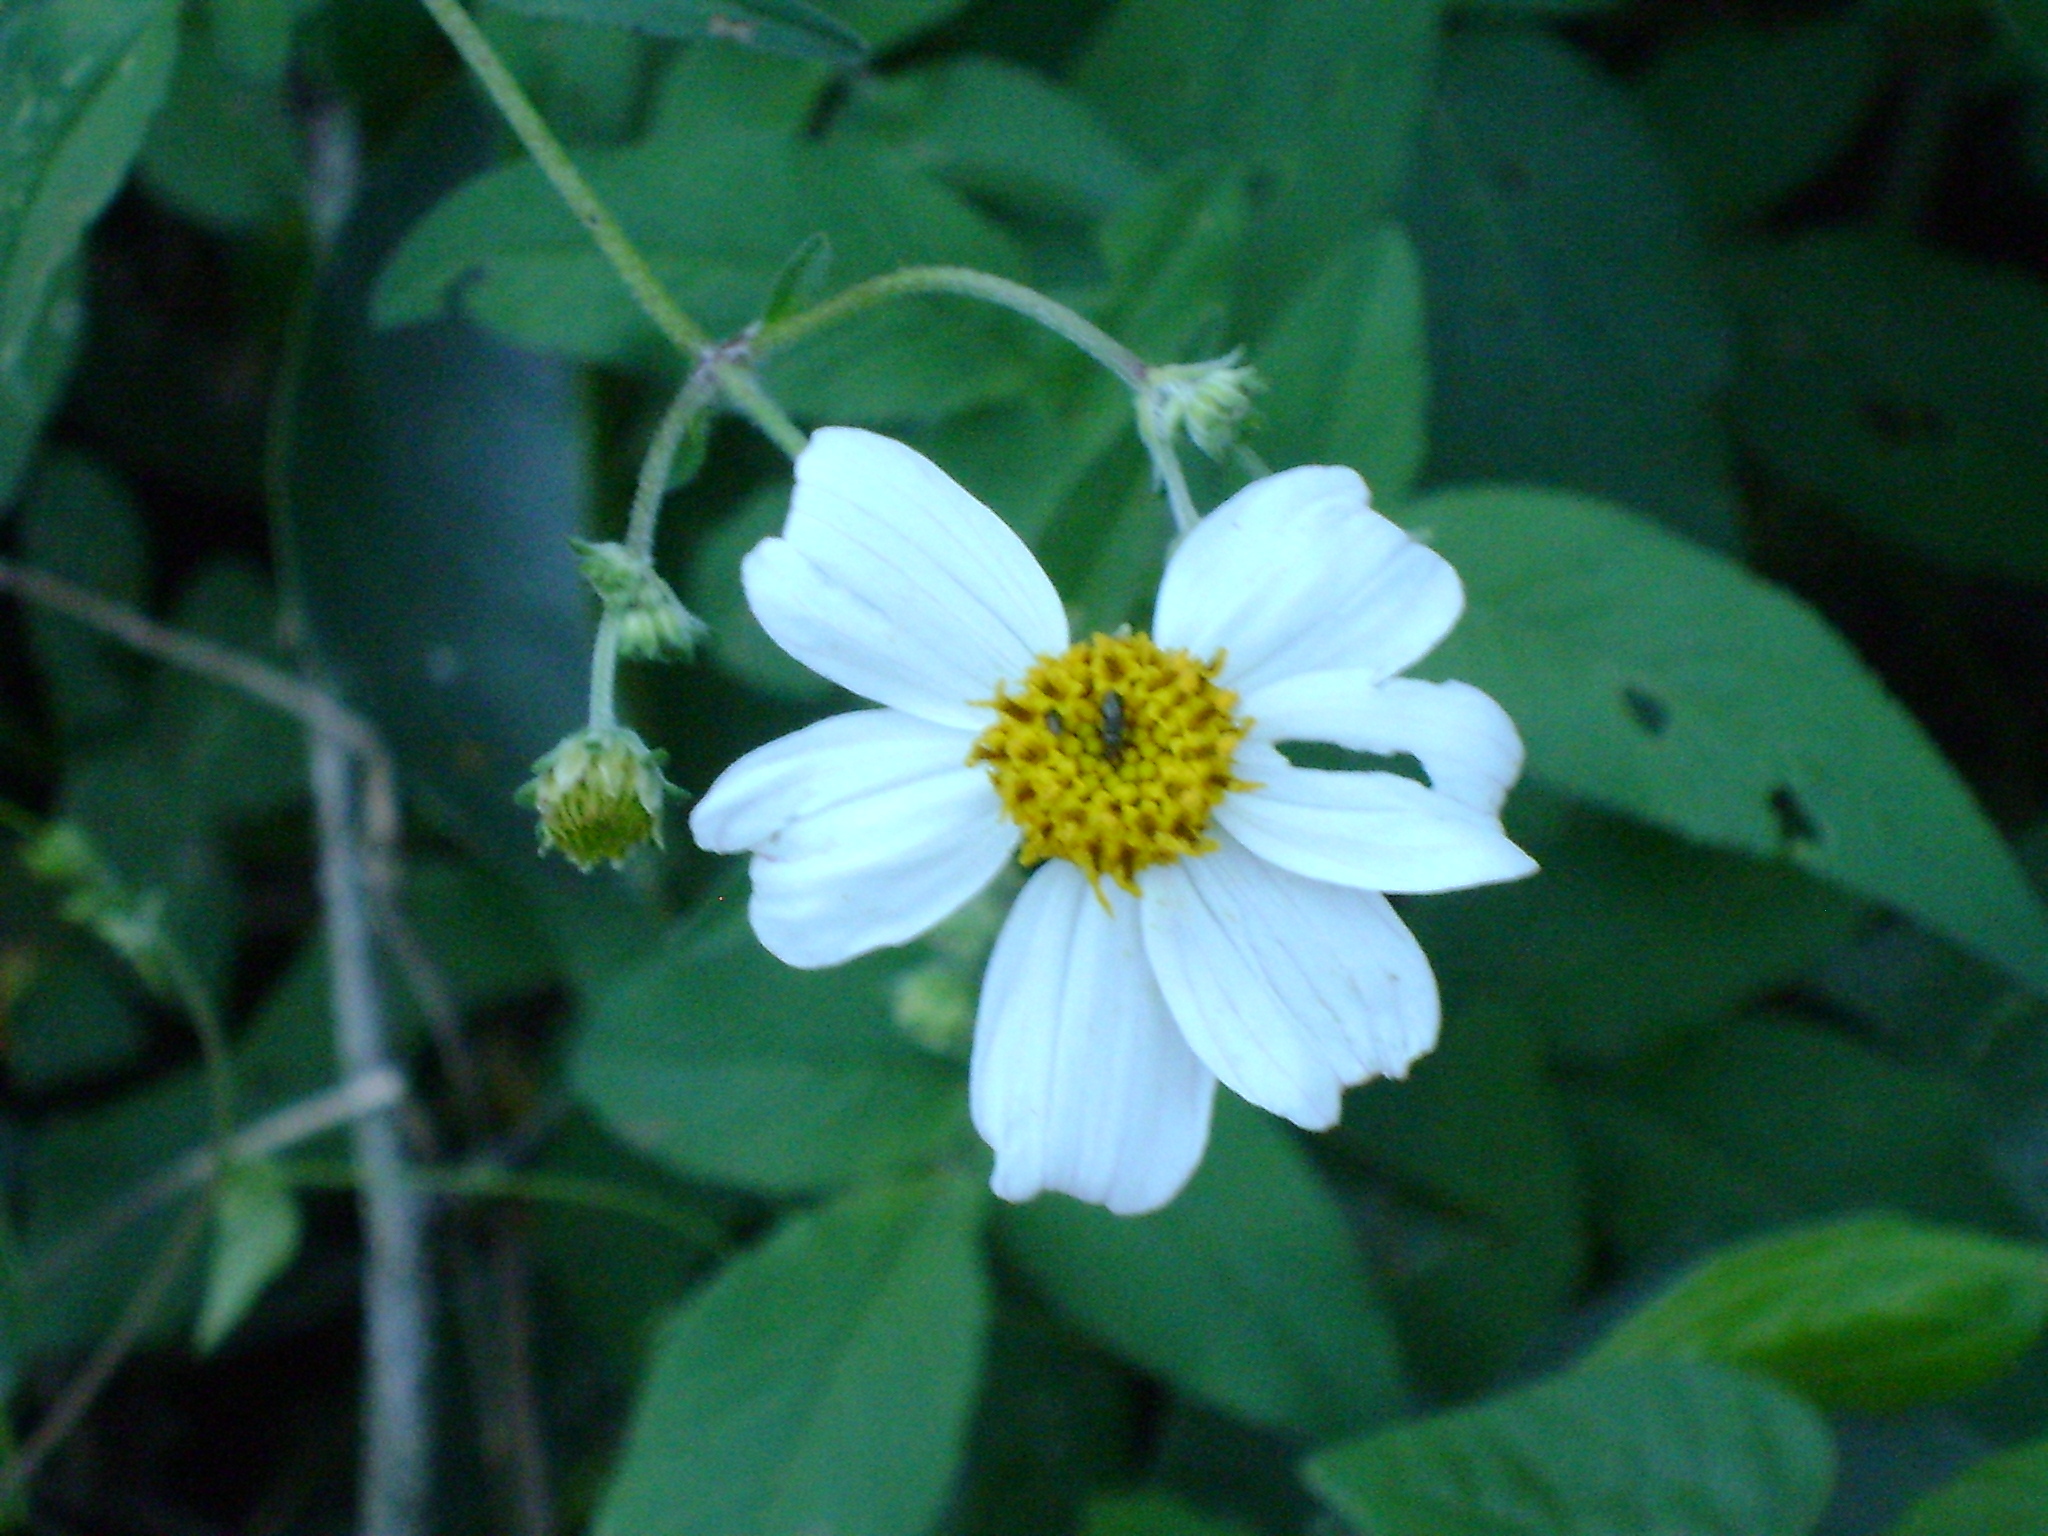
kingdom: Plantae
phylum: Tracheophyta
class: Magnoliopsida
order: Asterales
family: Asteraceae
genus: Bidens
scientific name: Bidens alba
